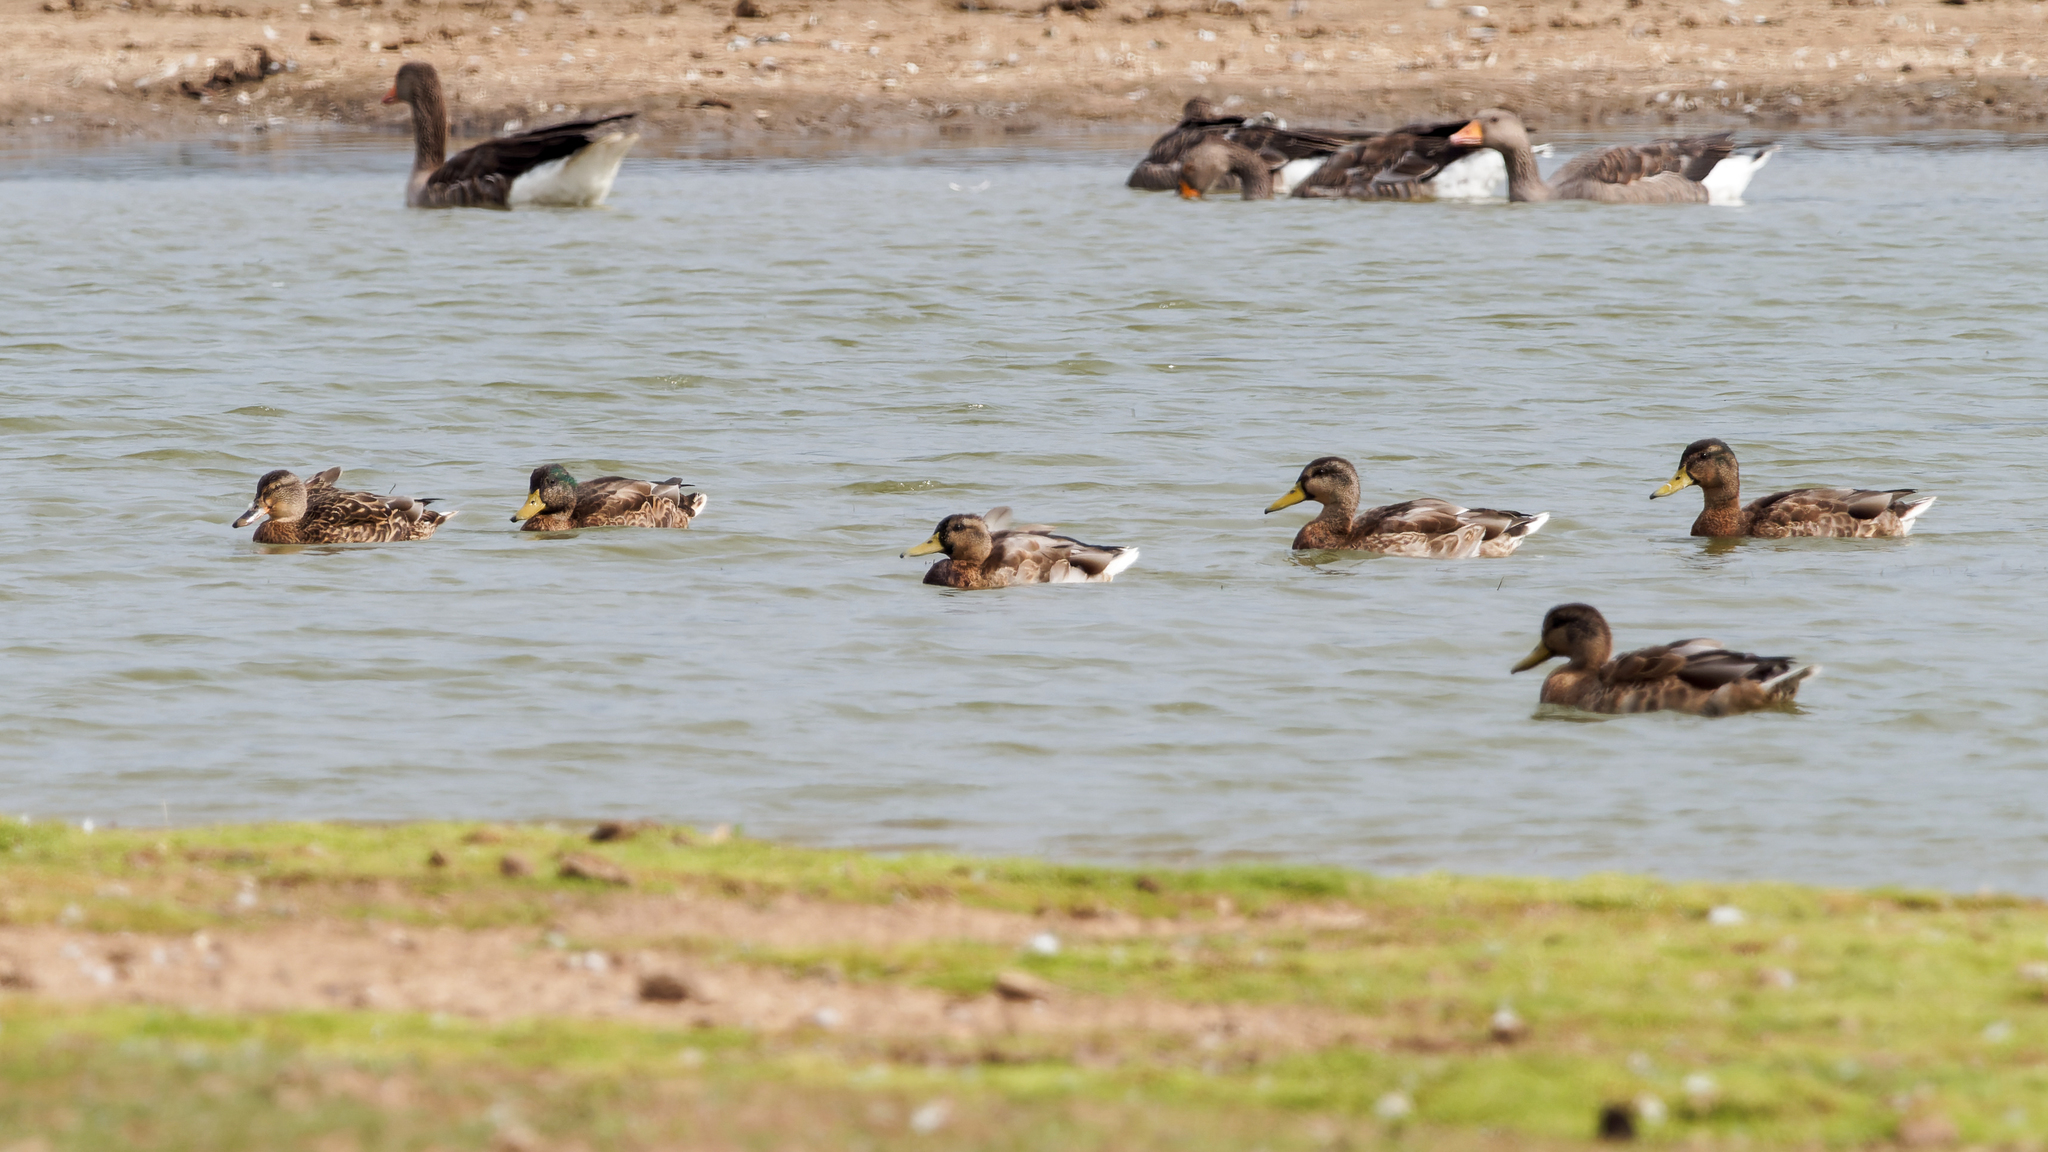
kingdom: Animalia
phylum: Chordata
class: Aves
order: Anseriformes
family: Anatidae
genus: Anas
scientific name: Anas platyrhynchos
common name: Mallard
